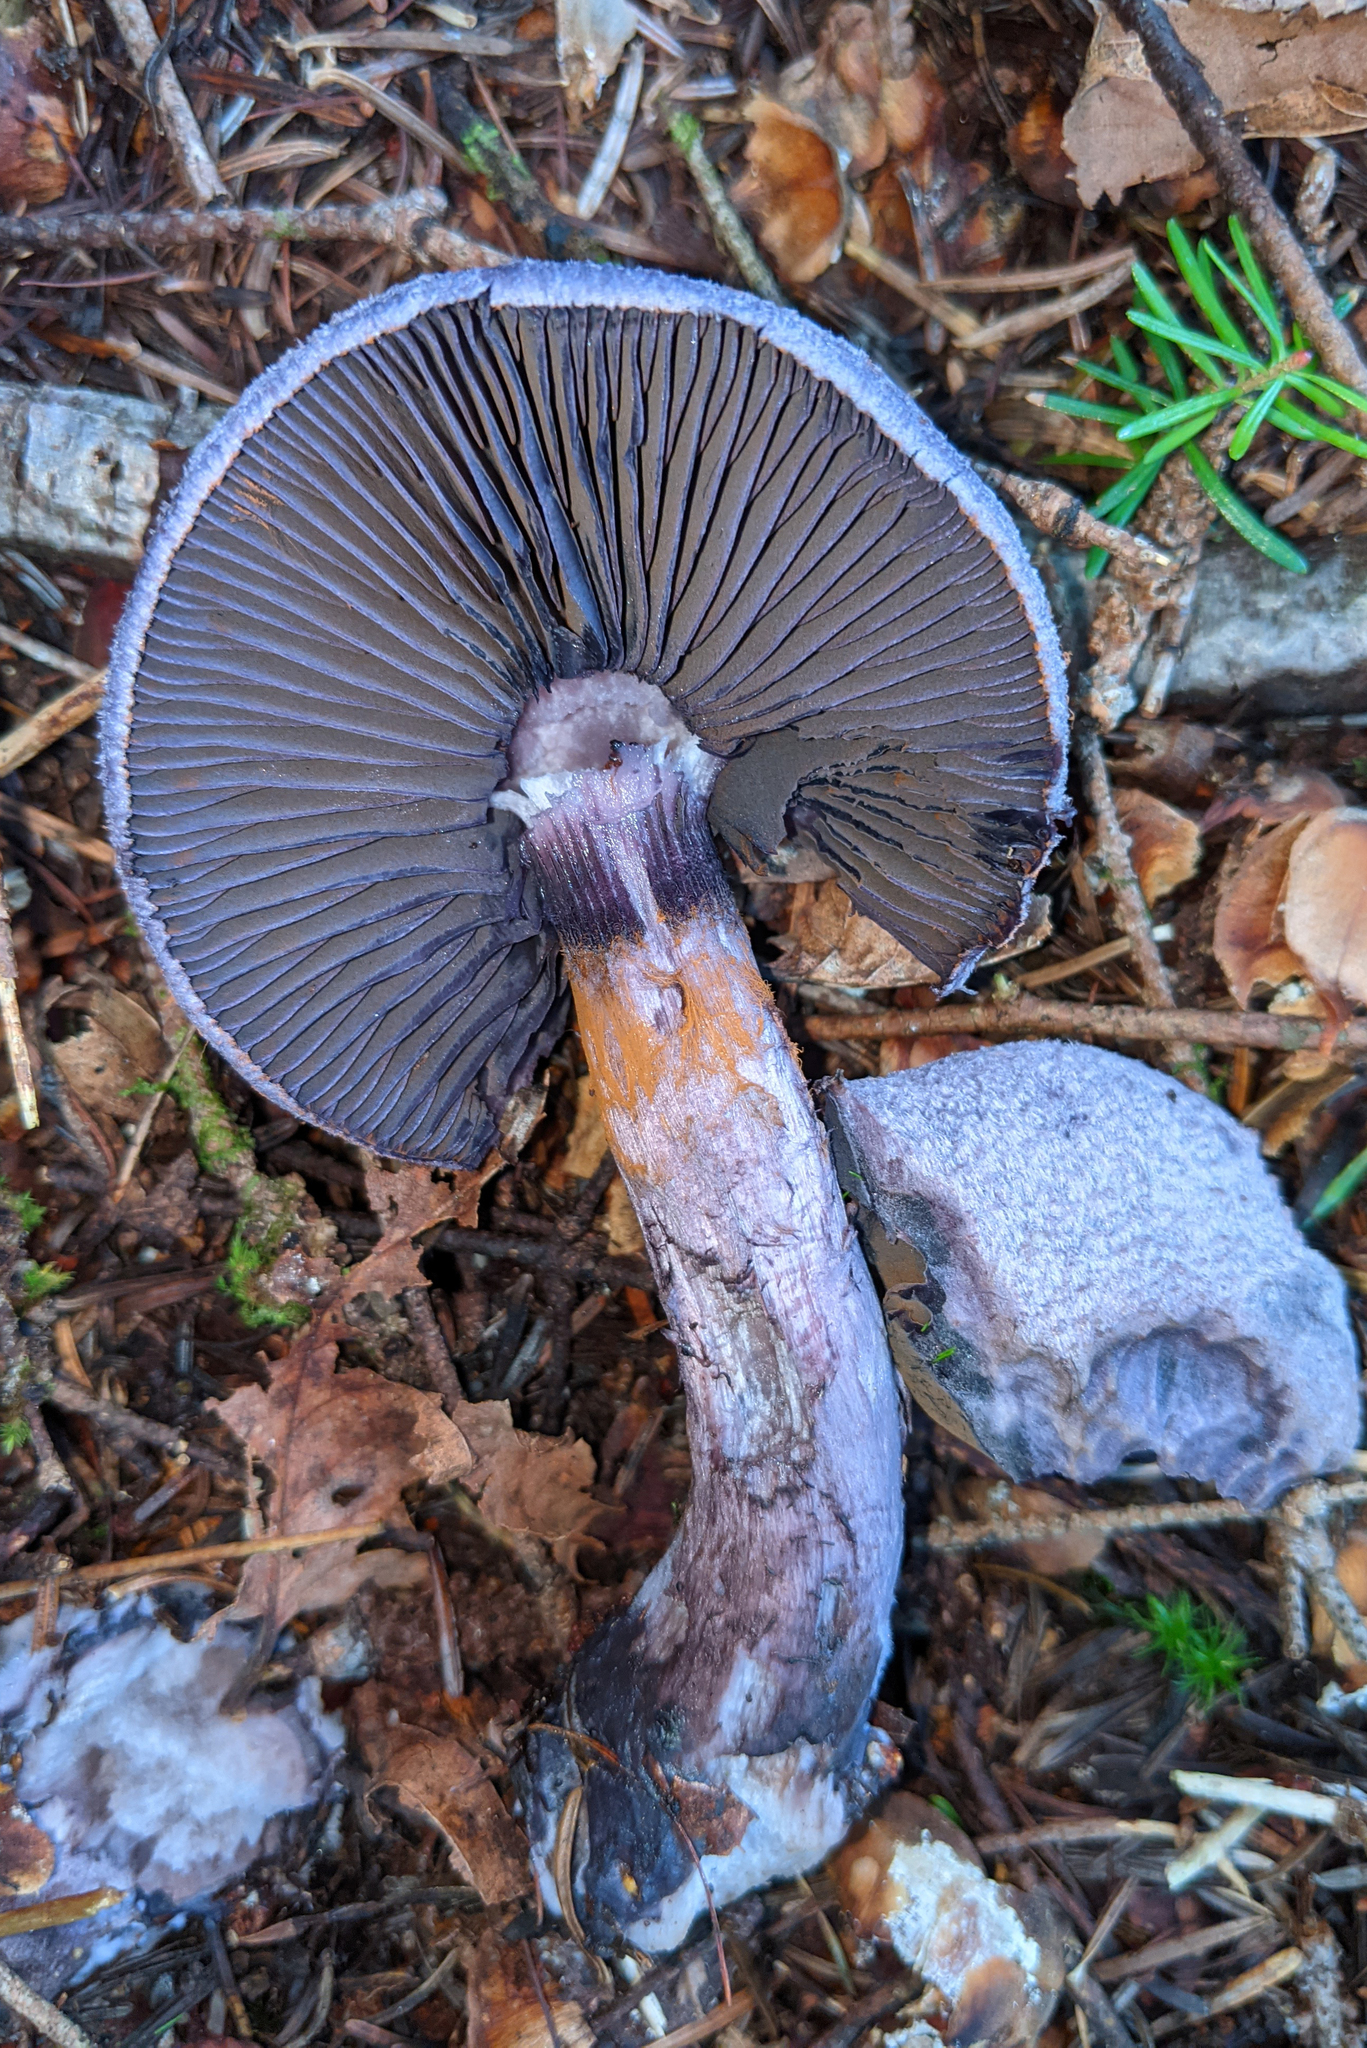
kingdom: Fungi
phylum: Basidiomycota
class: Agaricomycetes
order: Agaricales
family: Cortinariaceae
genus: Cortinarius
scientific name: Cortinarius violaceus
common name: Violet webcap
